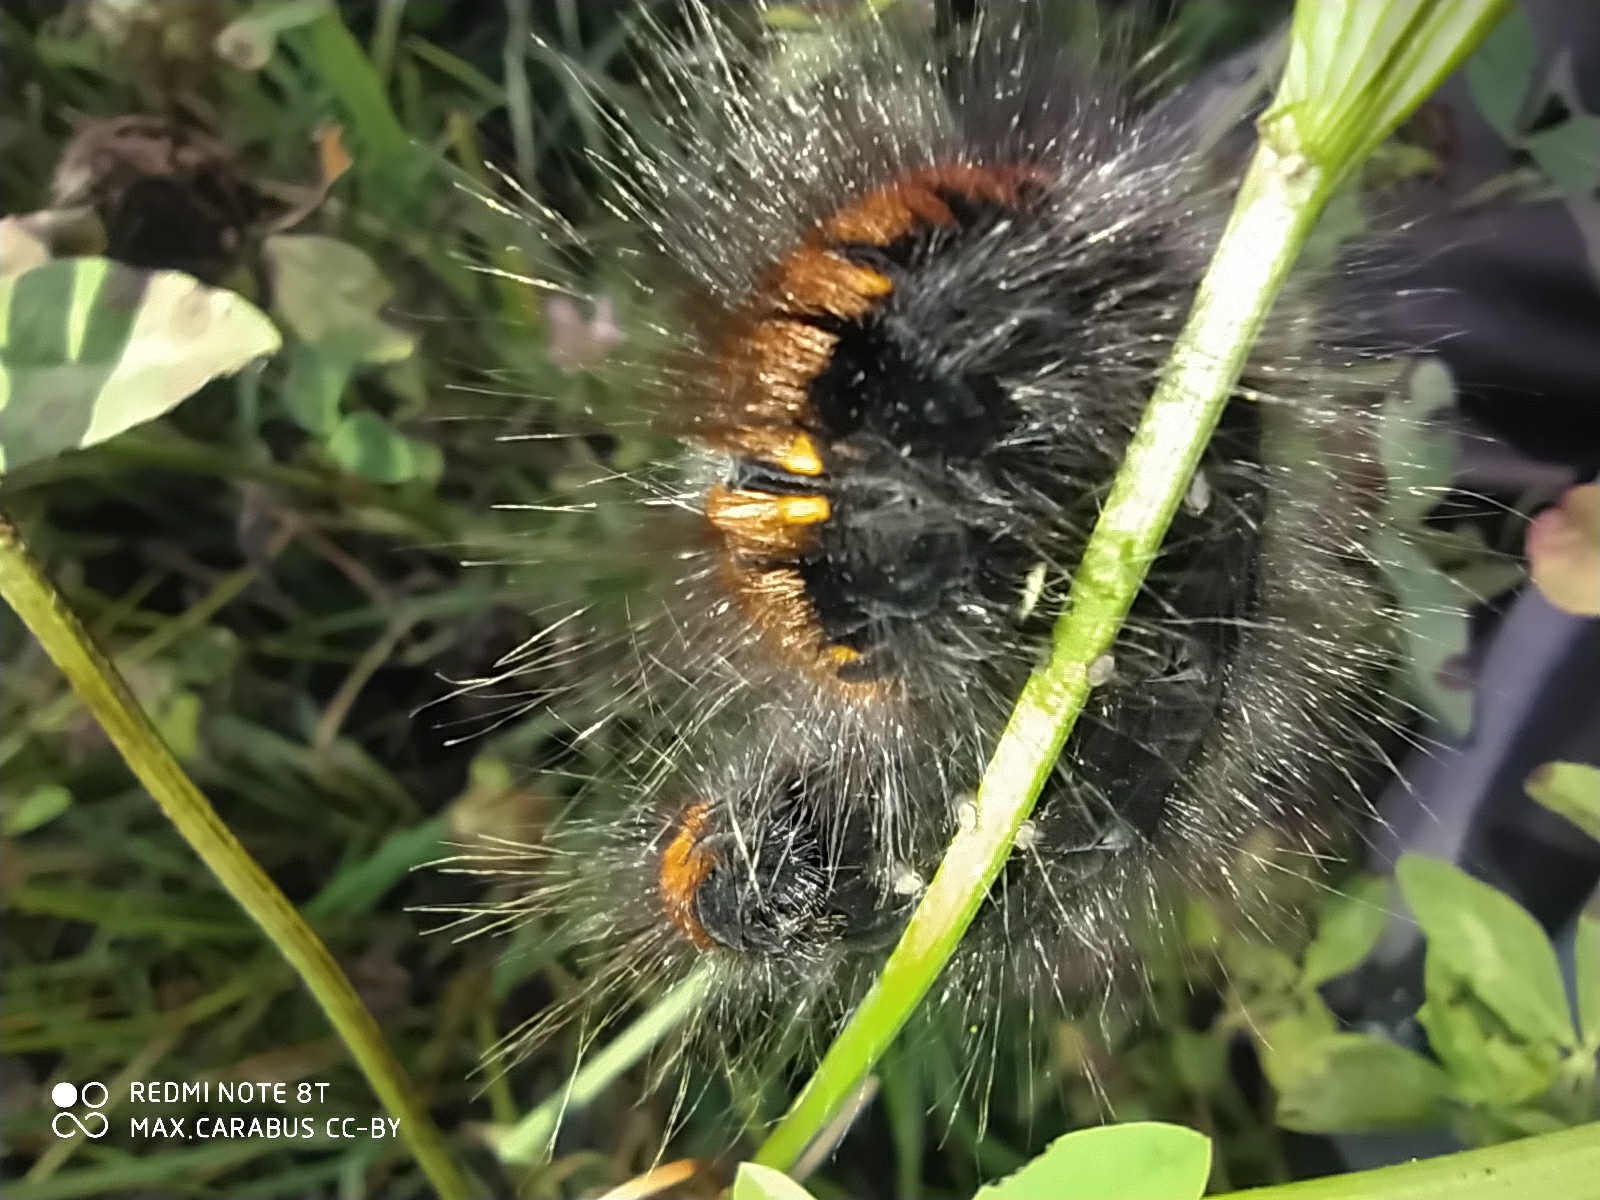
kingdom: Animalia
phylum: Arthropoda
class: Insecta
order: Lepidoptera
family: Lasiocampidae
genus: Macrothylacia
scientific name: Macrothylacia rubi
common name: Fox moth
